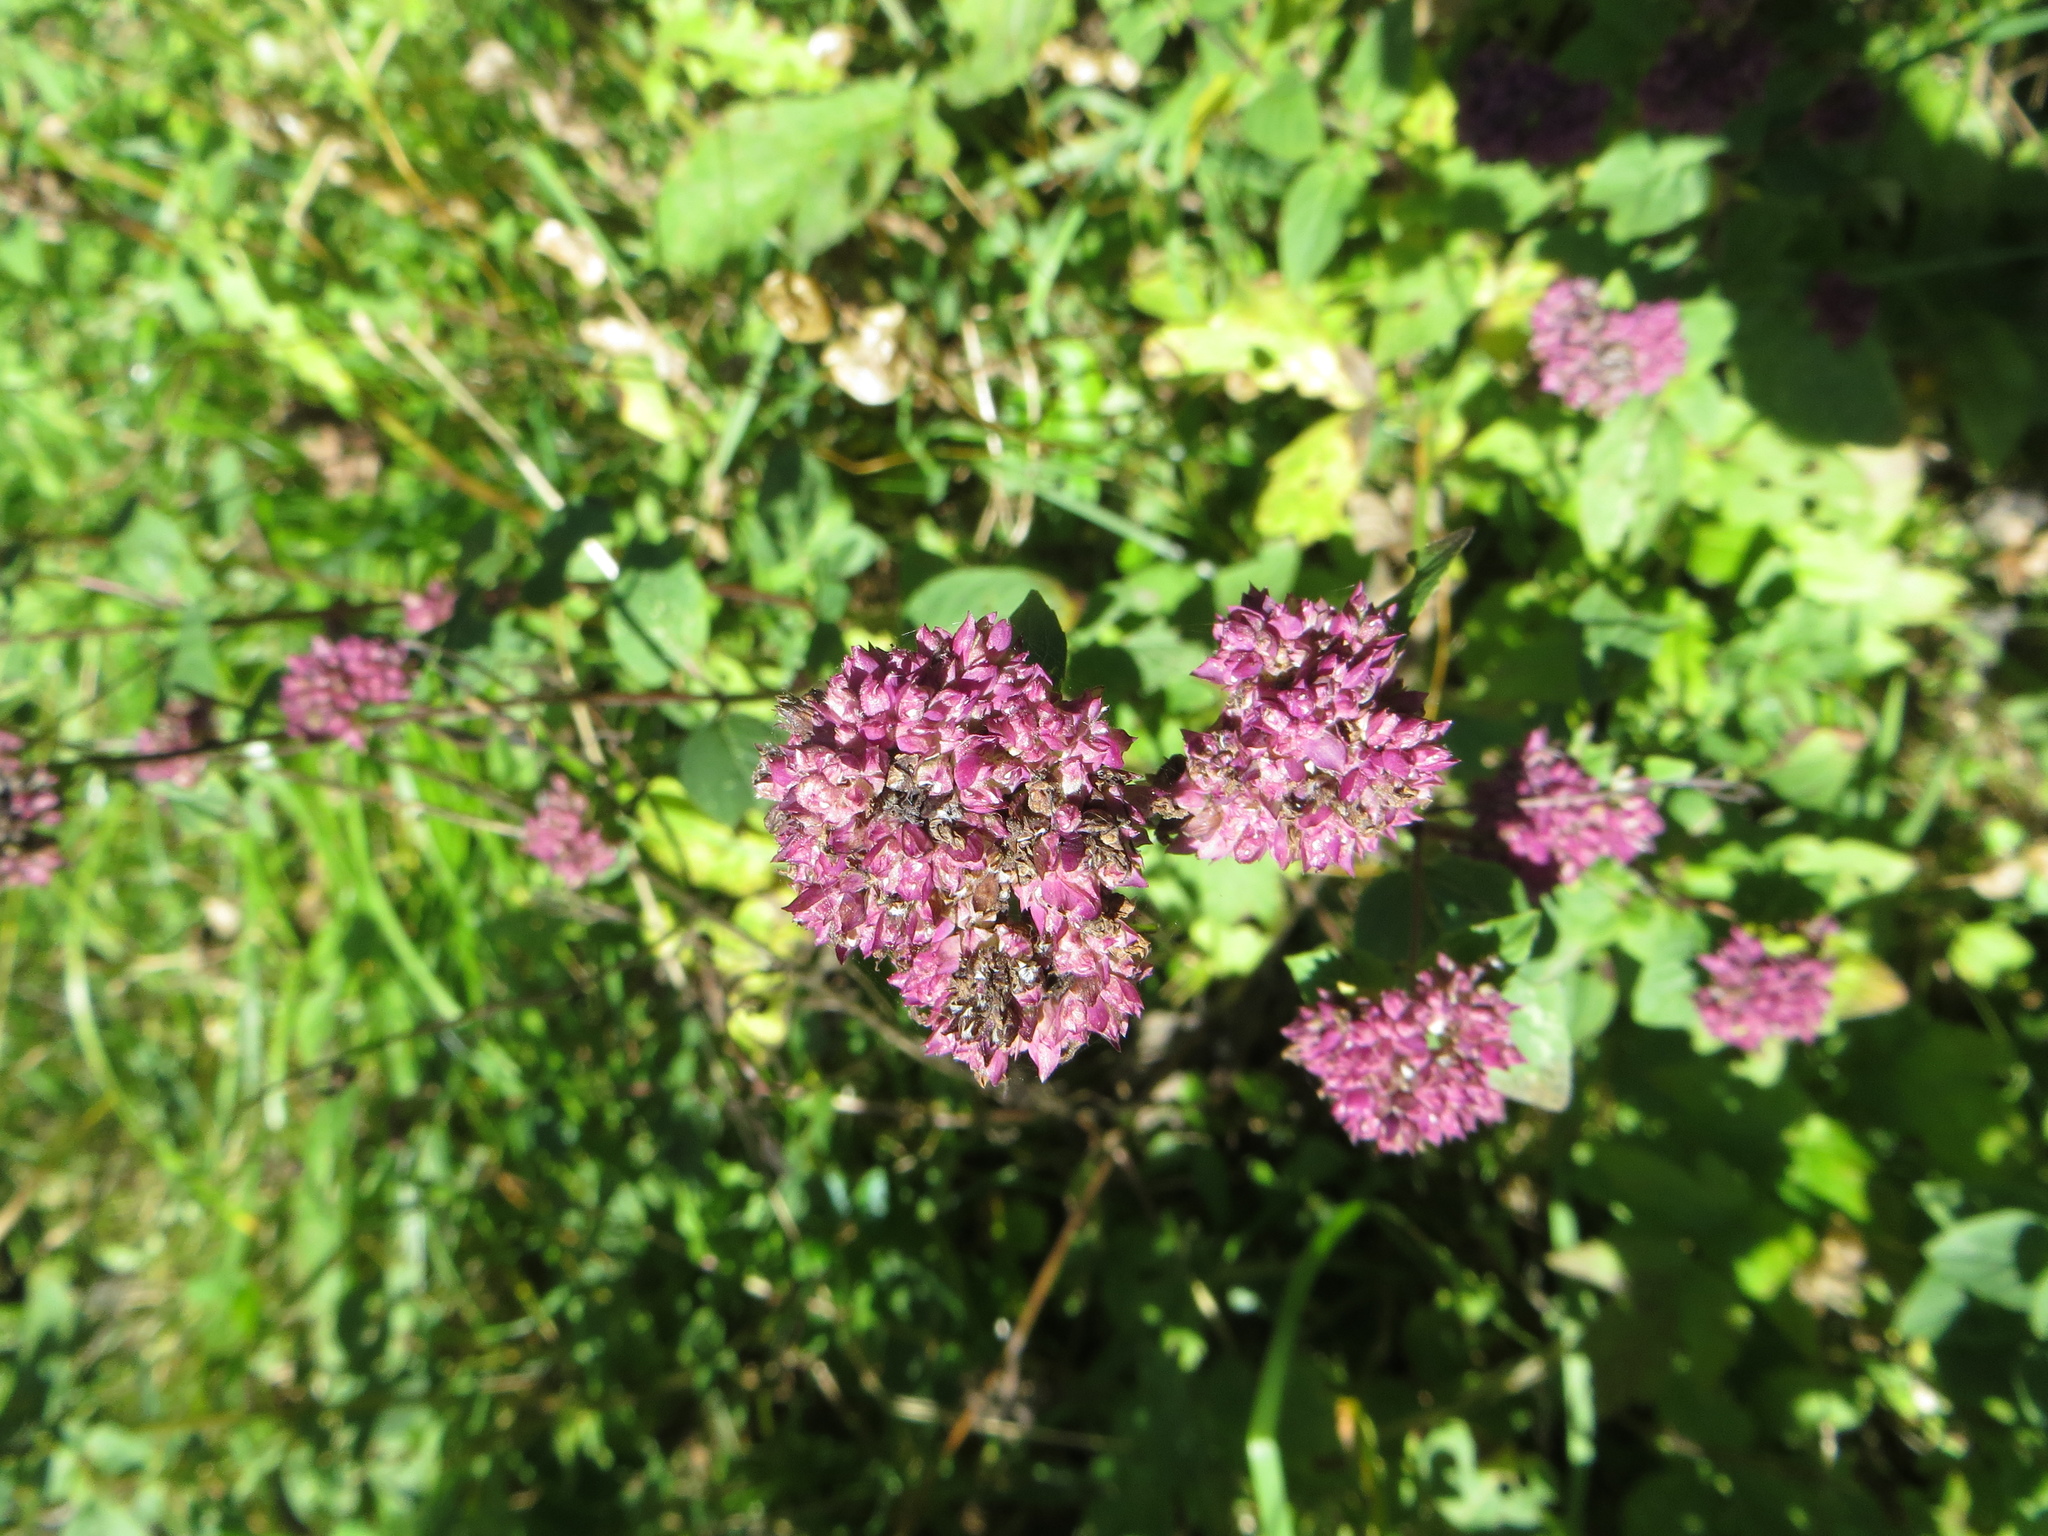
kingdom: Plantae
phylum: Tracheophyta
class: Magnoliopsida
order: Lamiales
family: Lamiaceae
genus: Origanum
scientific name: Origanum vulgare
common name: Wild marjoram
